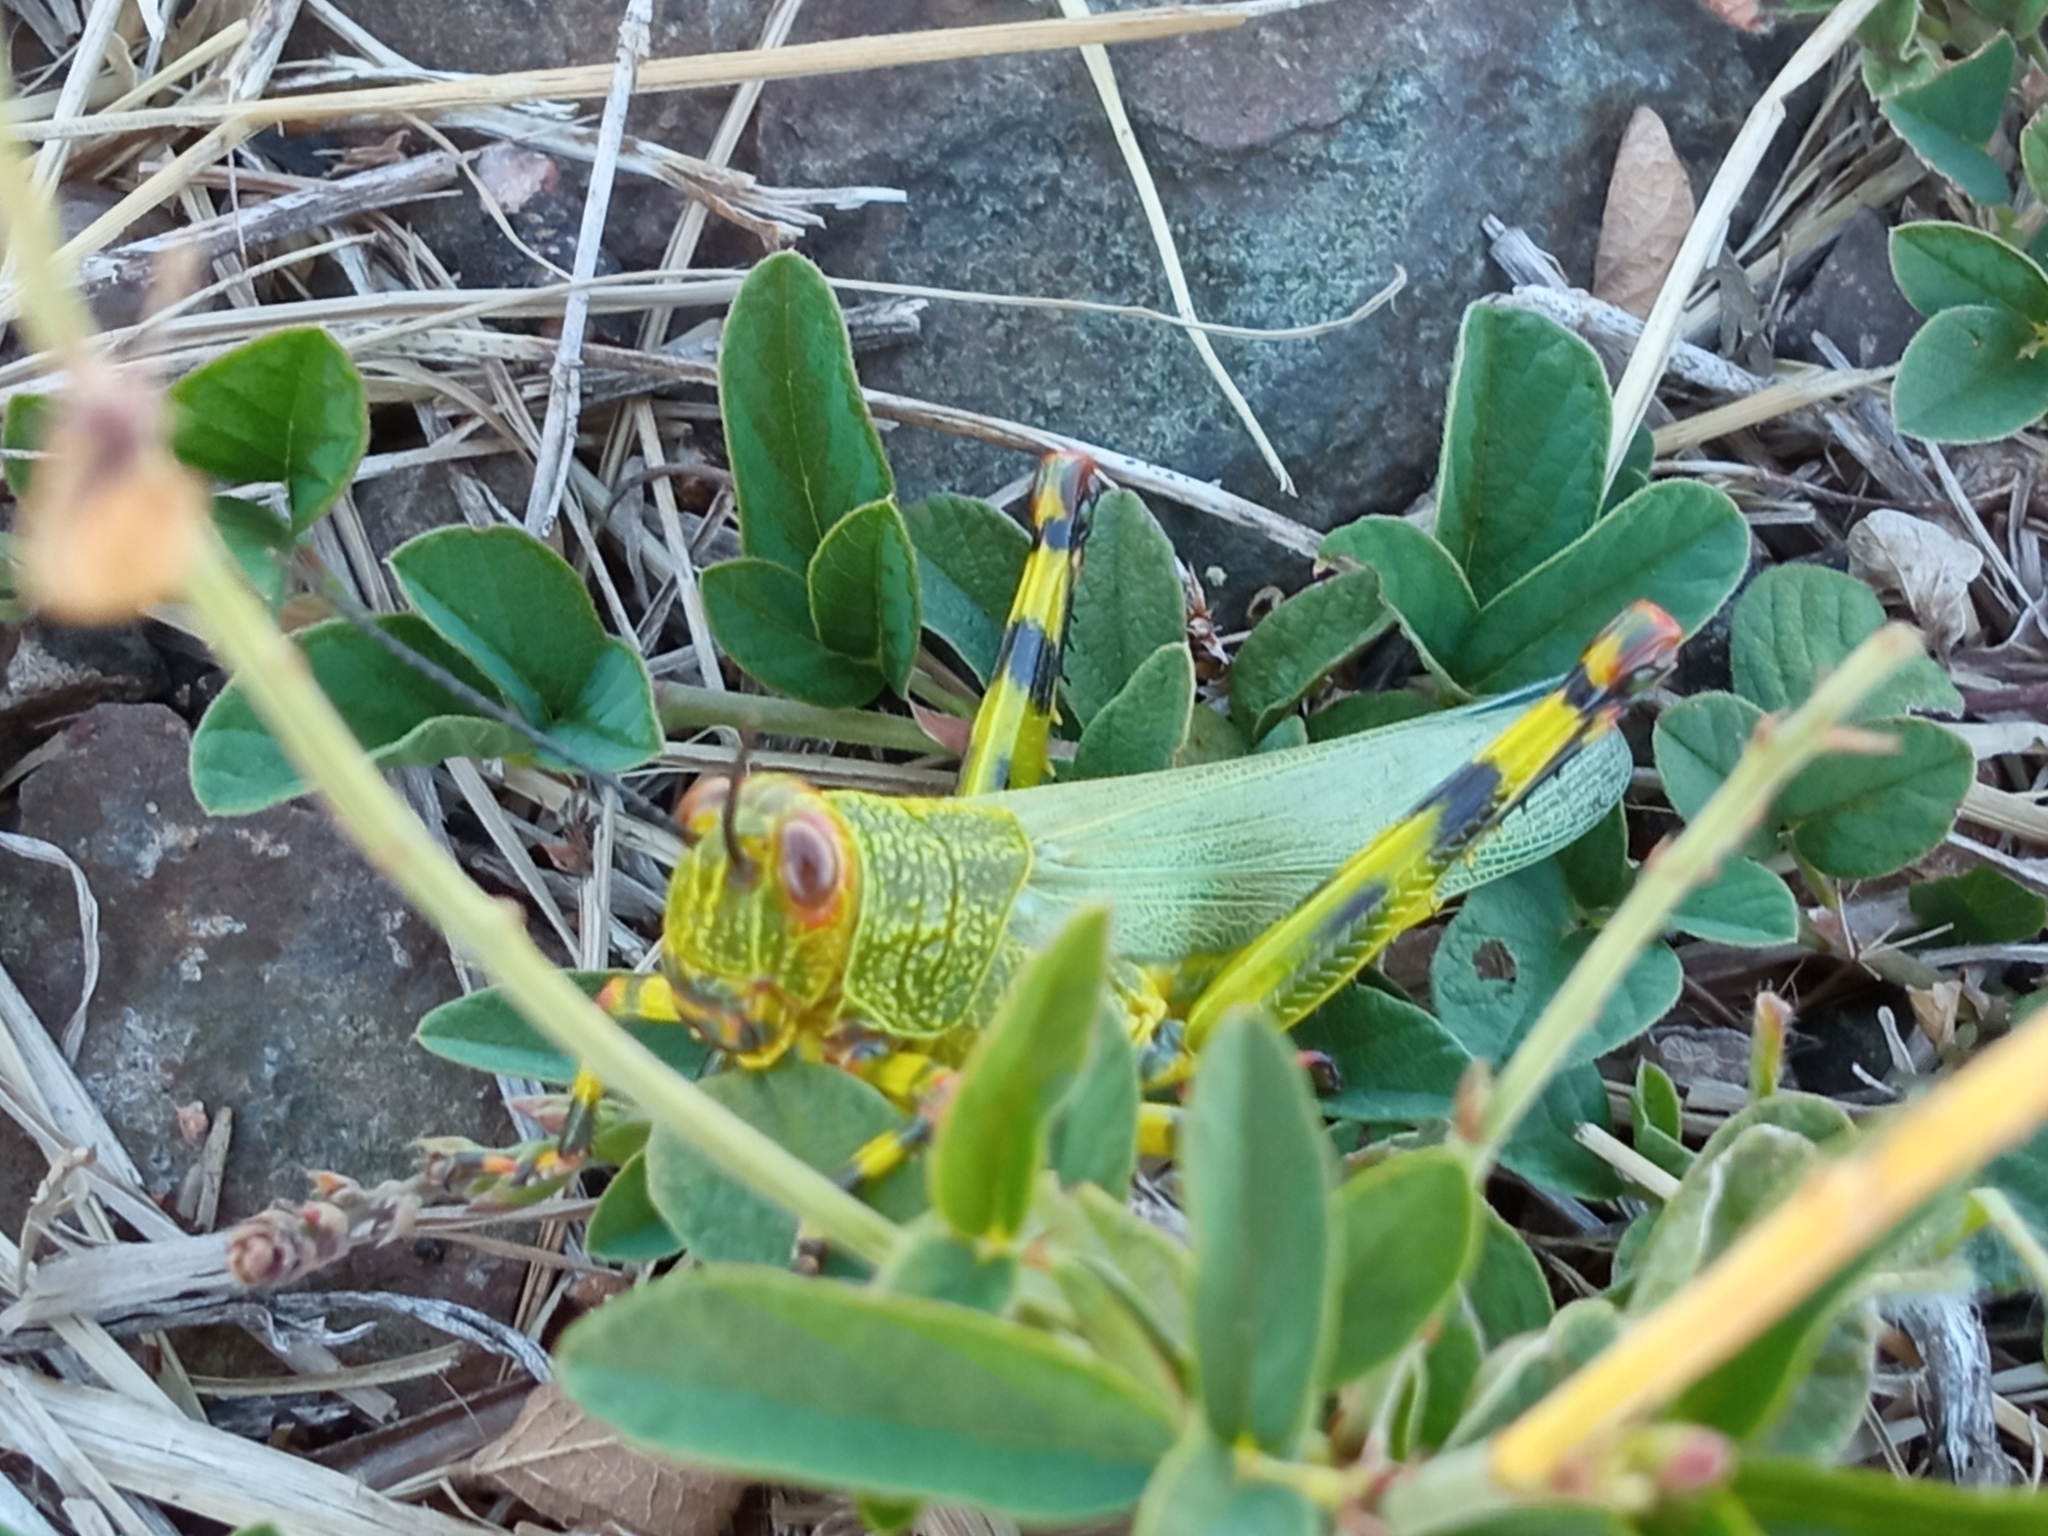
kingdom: Animalia
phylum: Arthropoda
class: Insecta
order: Orthoptera
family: Romaleidae
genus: Zoniopoda
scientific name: Zoniopoda tarsata
